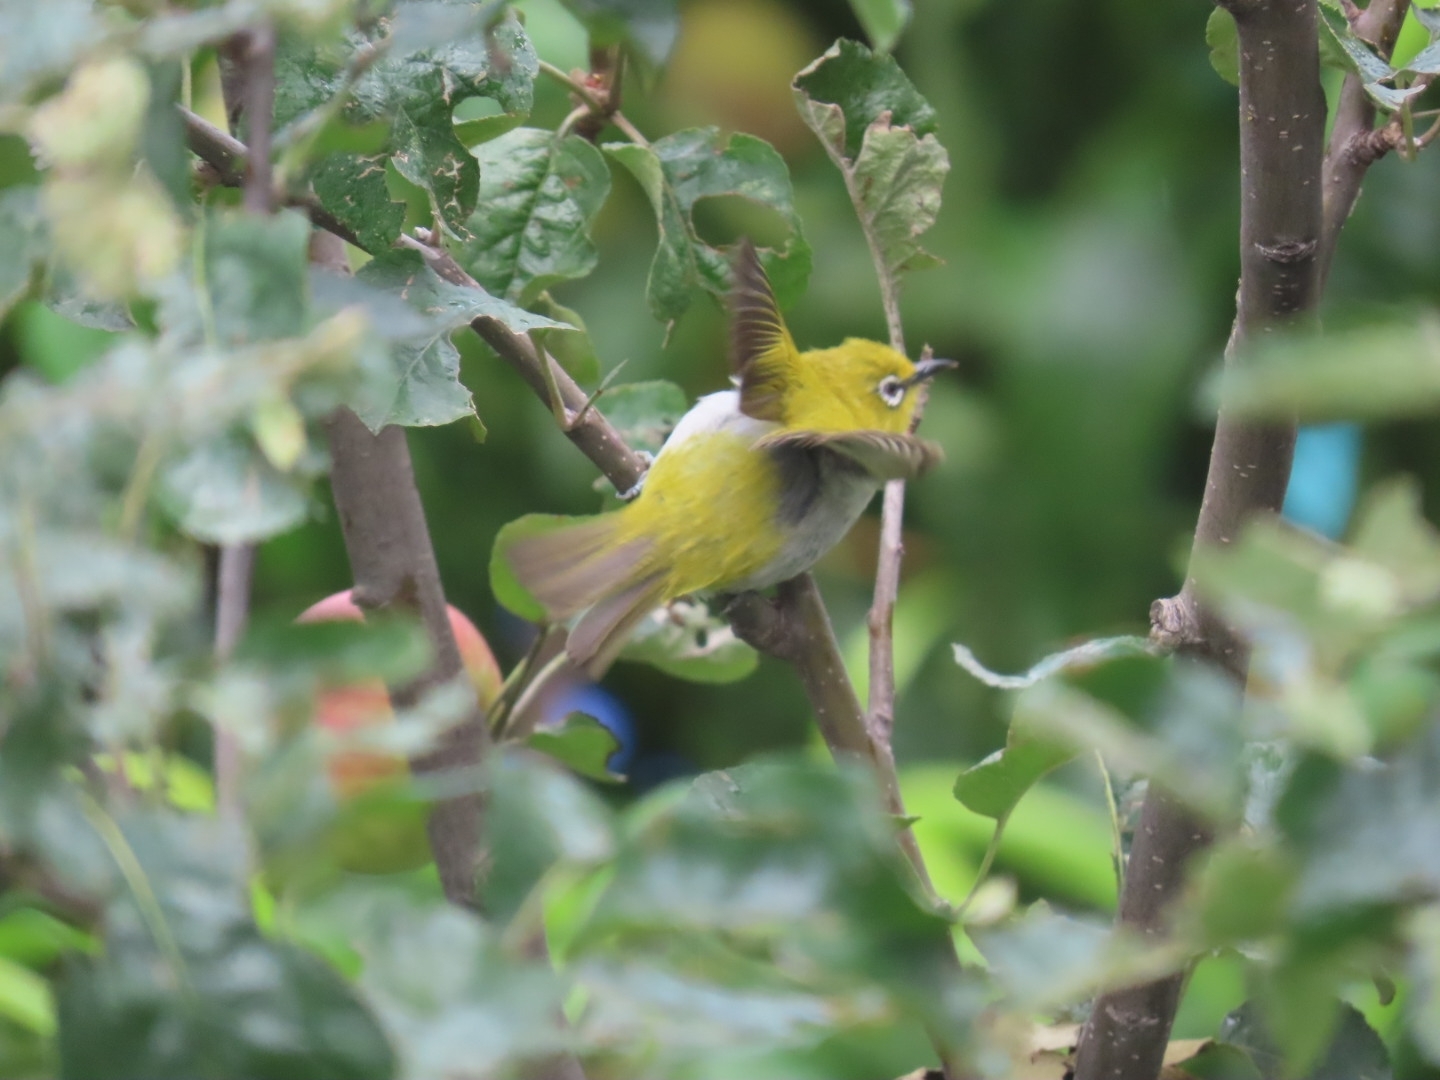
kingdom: Animalia
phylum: Chordata
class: Aves
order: Passeriformes
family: Zosteropidae
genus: Zosterops
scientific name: Zosterops palpebrosus
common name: Oriental white-eye
